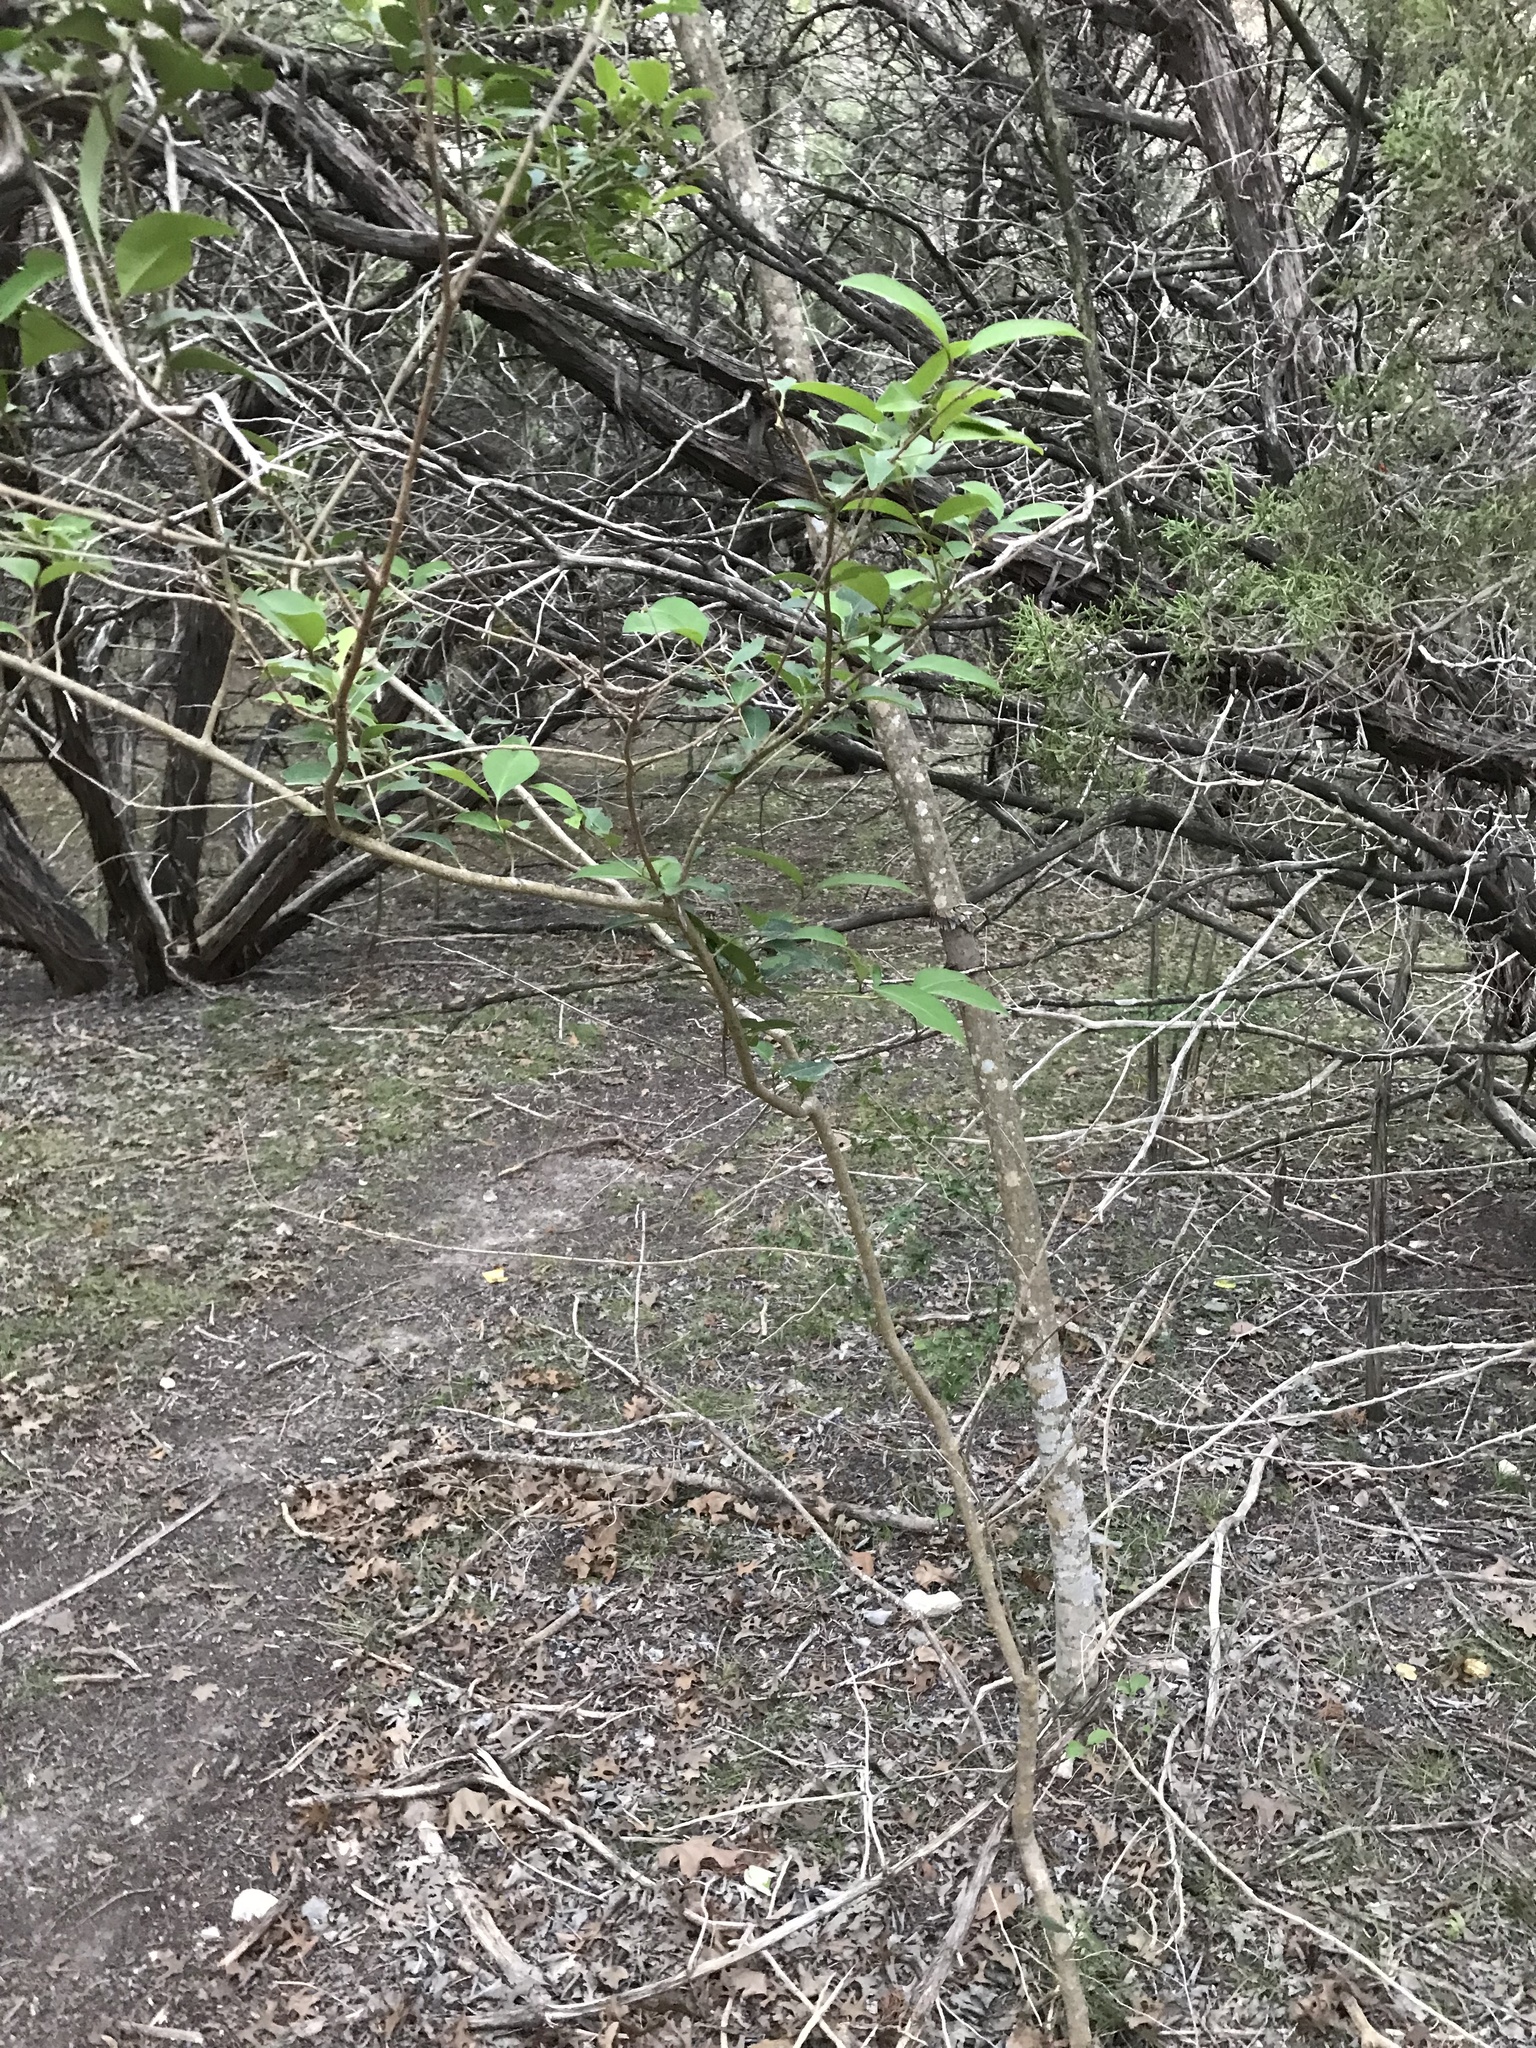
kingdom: Plantae
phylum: Tracheophyta
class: Magnoliopsida
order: Lamiales
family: Oleaceae
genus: Ligustrum
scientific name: Ligustrum lucidum
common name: Glossy privet
